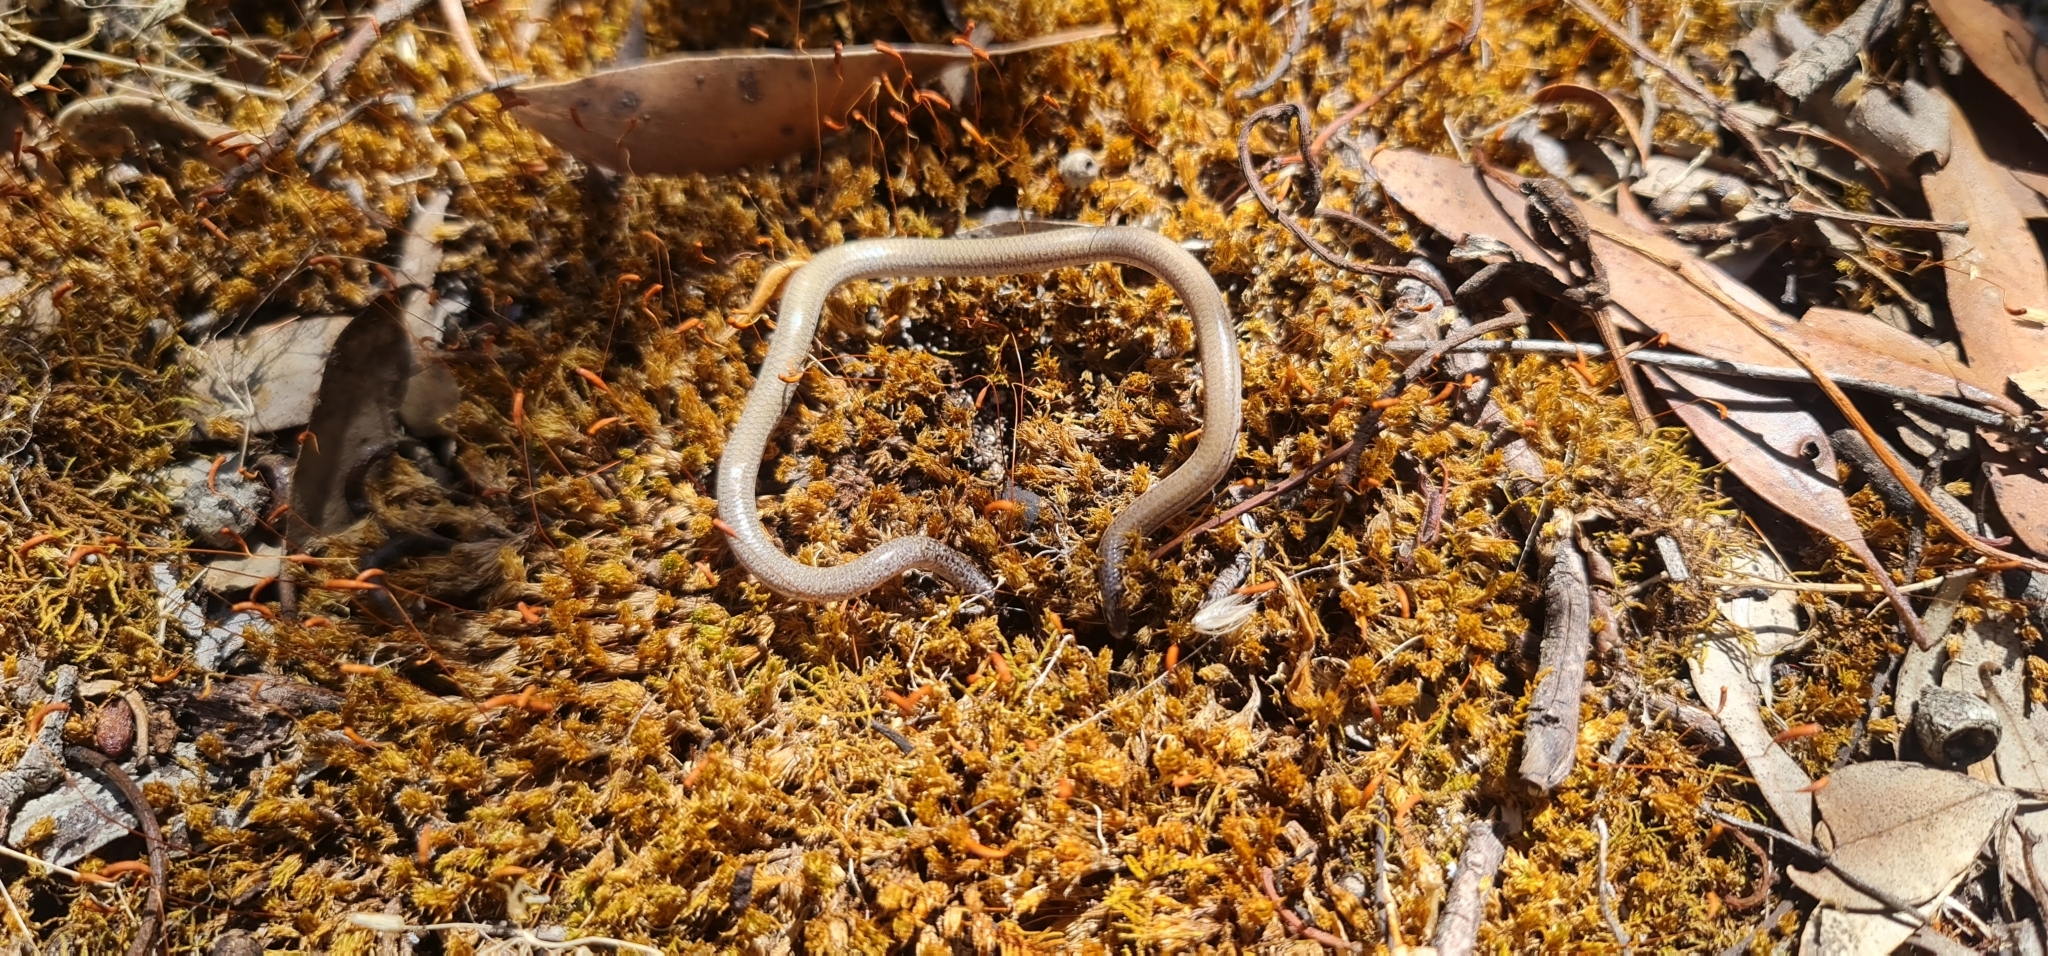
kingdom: Animalia
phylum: Chordata
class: Squamata
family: Pygopodidae
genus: Aprasia
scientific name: Aprasia striolata
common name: Striated worm-lizard
